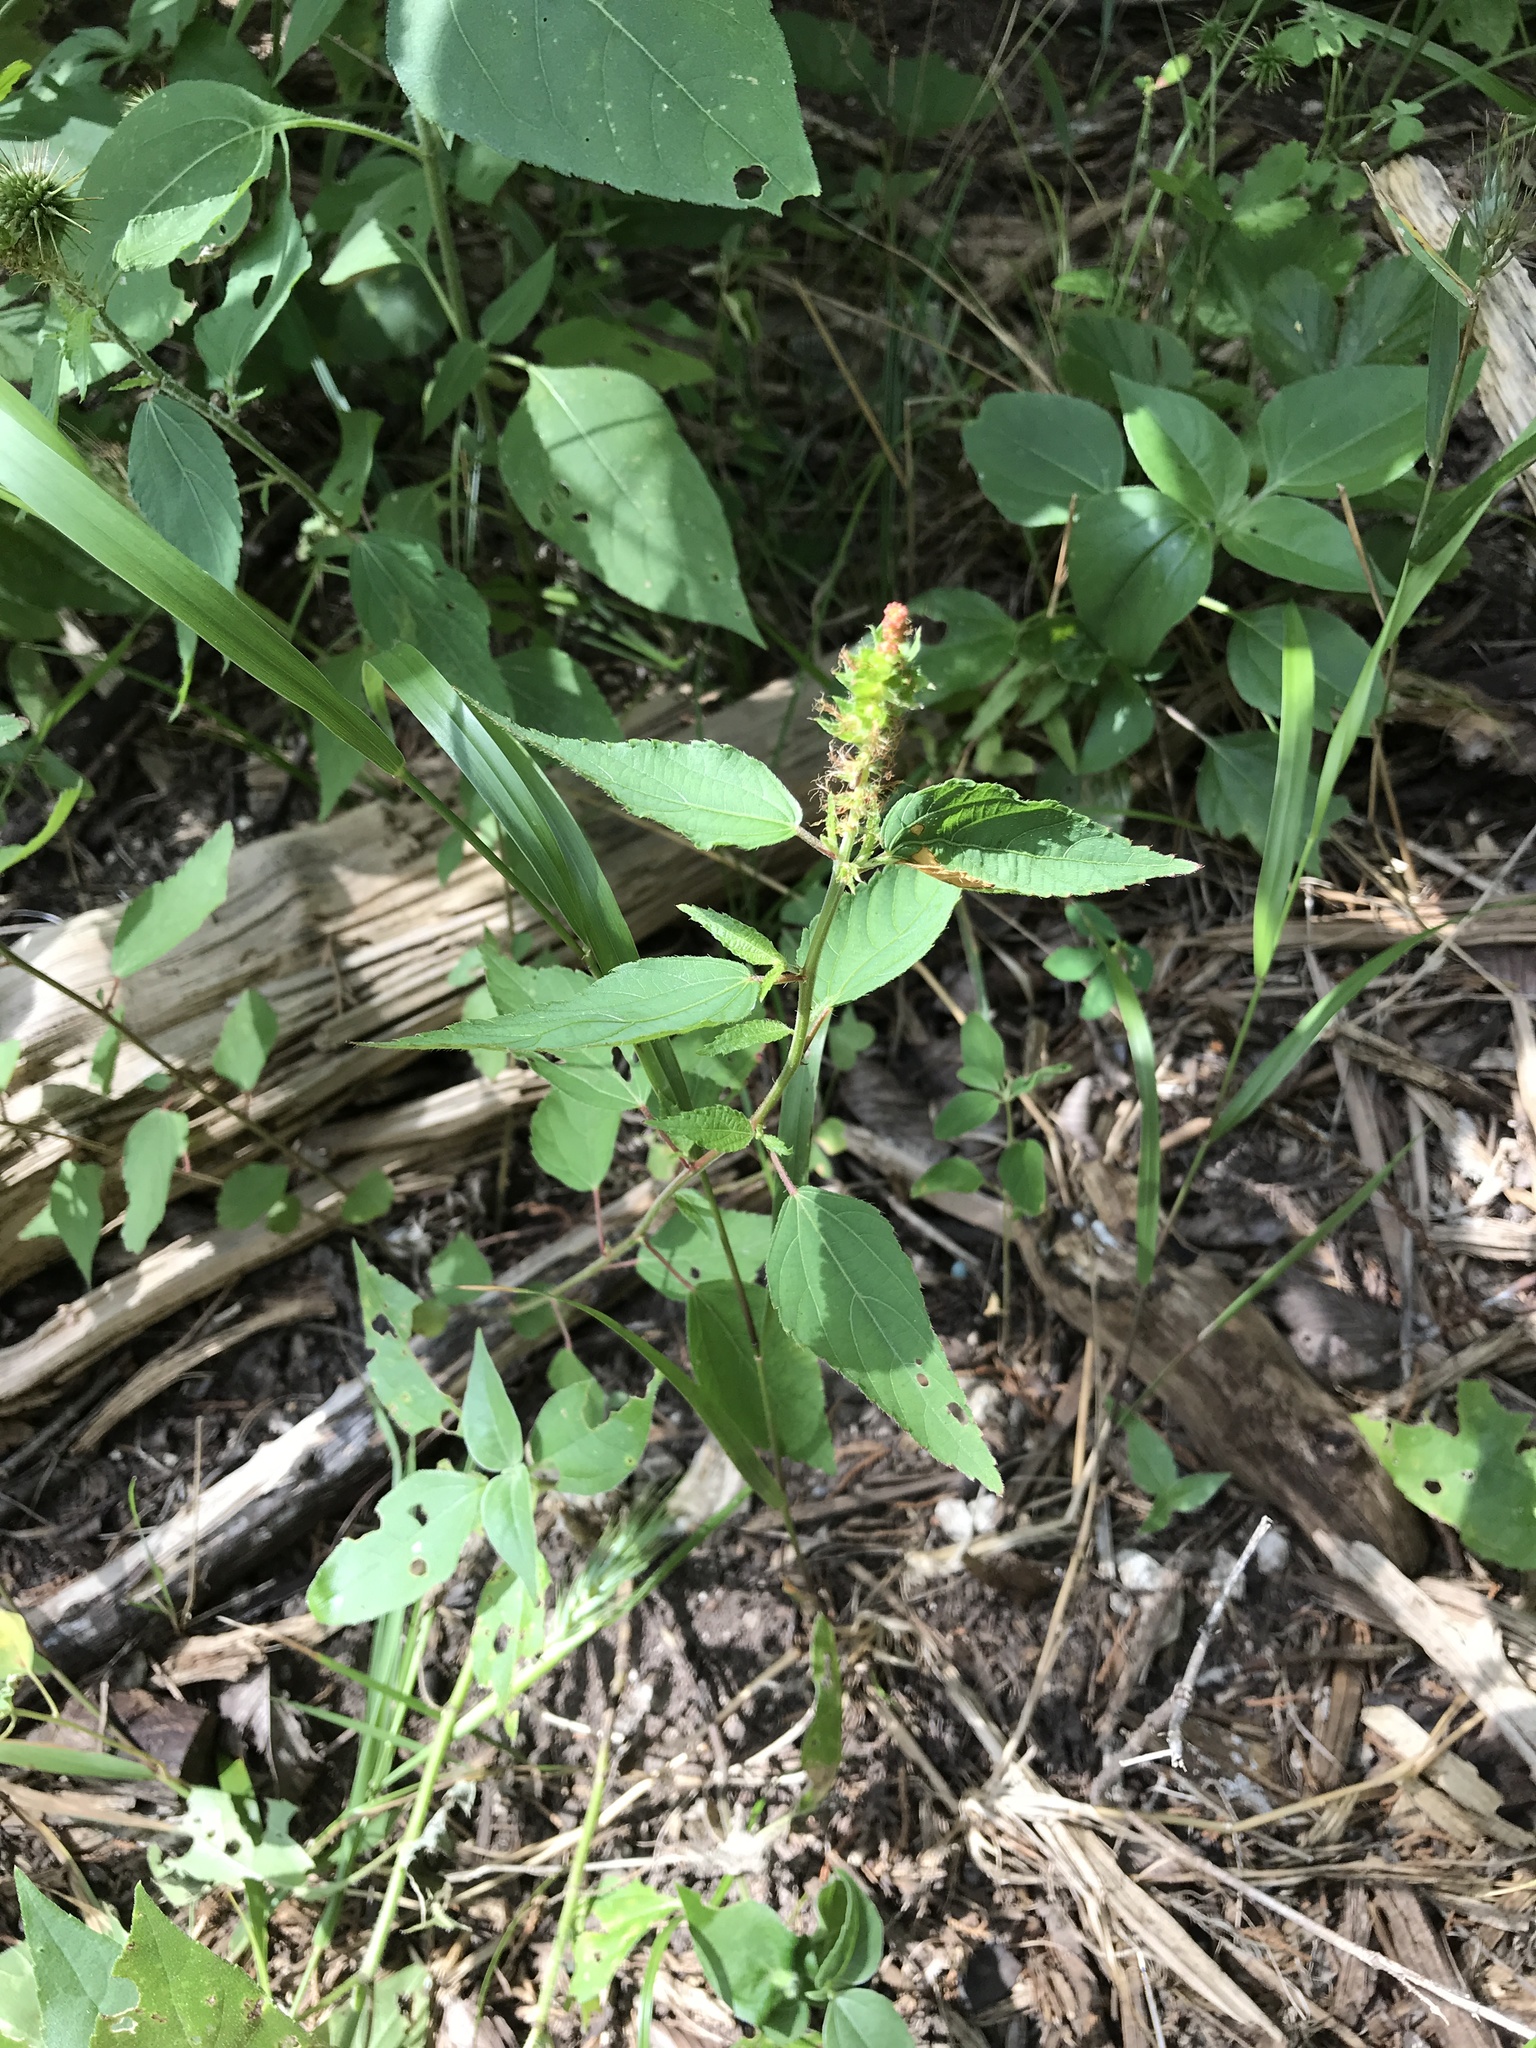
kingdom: Plantae
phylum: Tracheophyta
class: Magnoliopsida
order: Malpighiales
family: Euphorbiaceae
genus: Acalypha
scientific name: Acalypha phleoides
